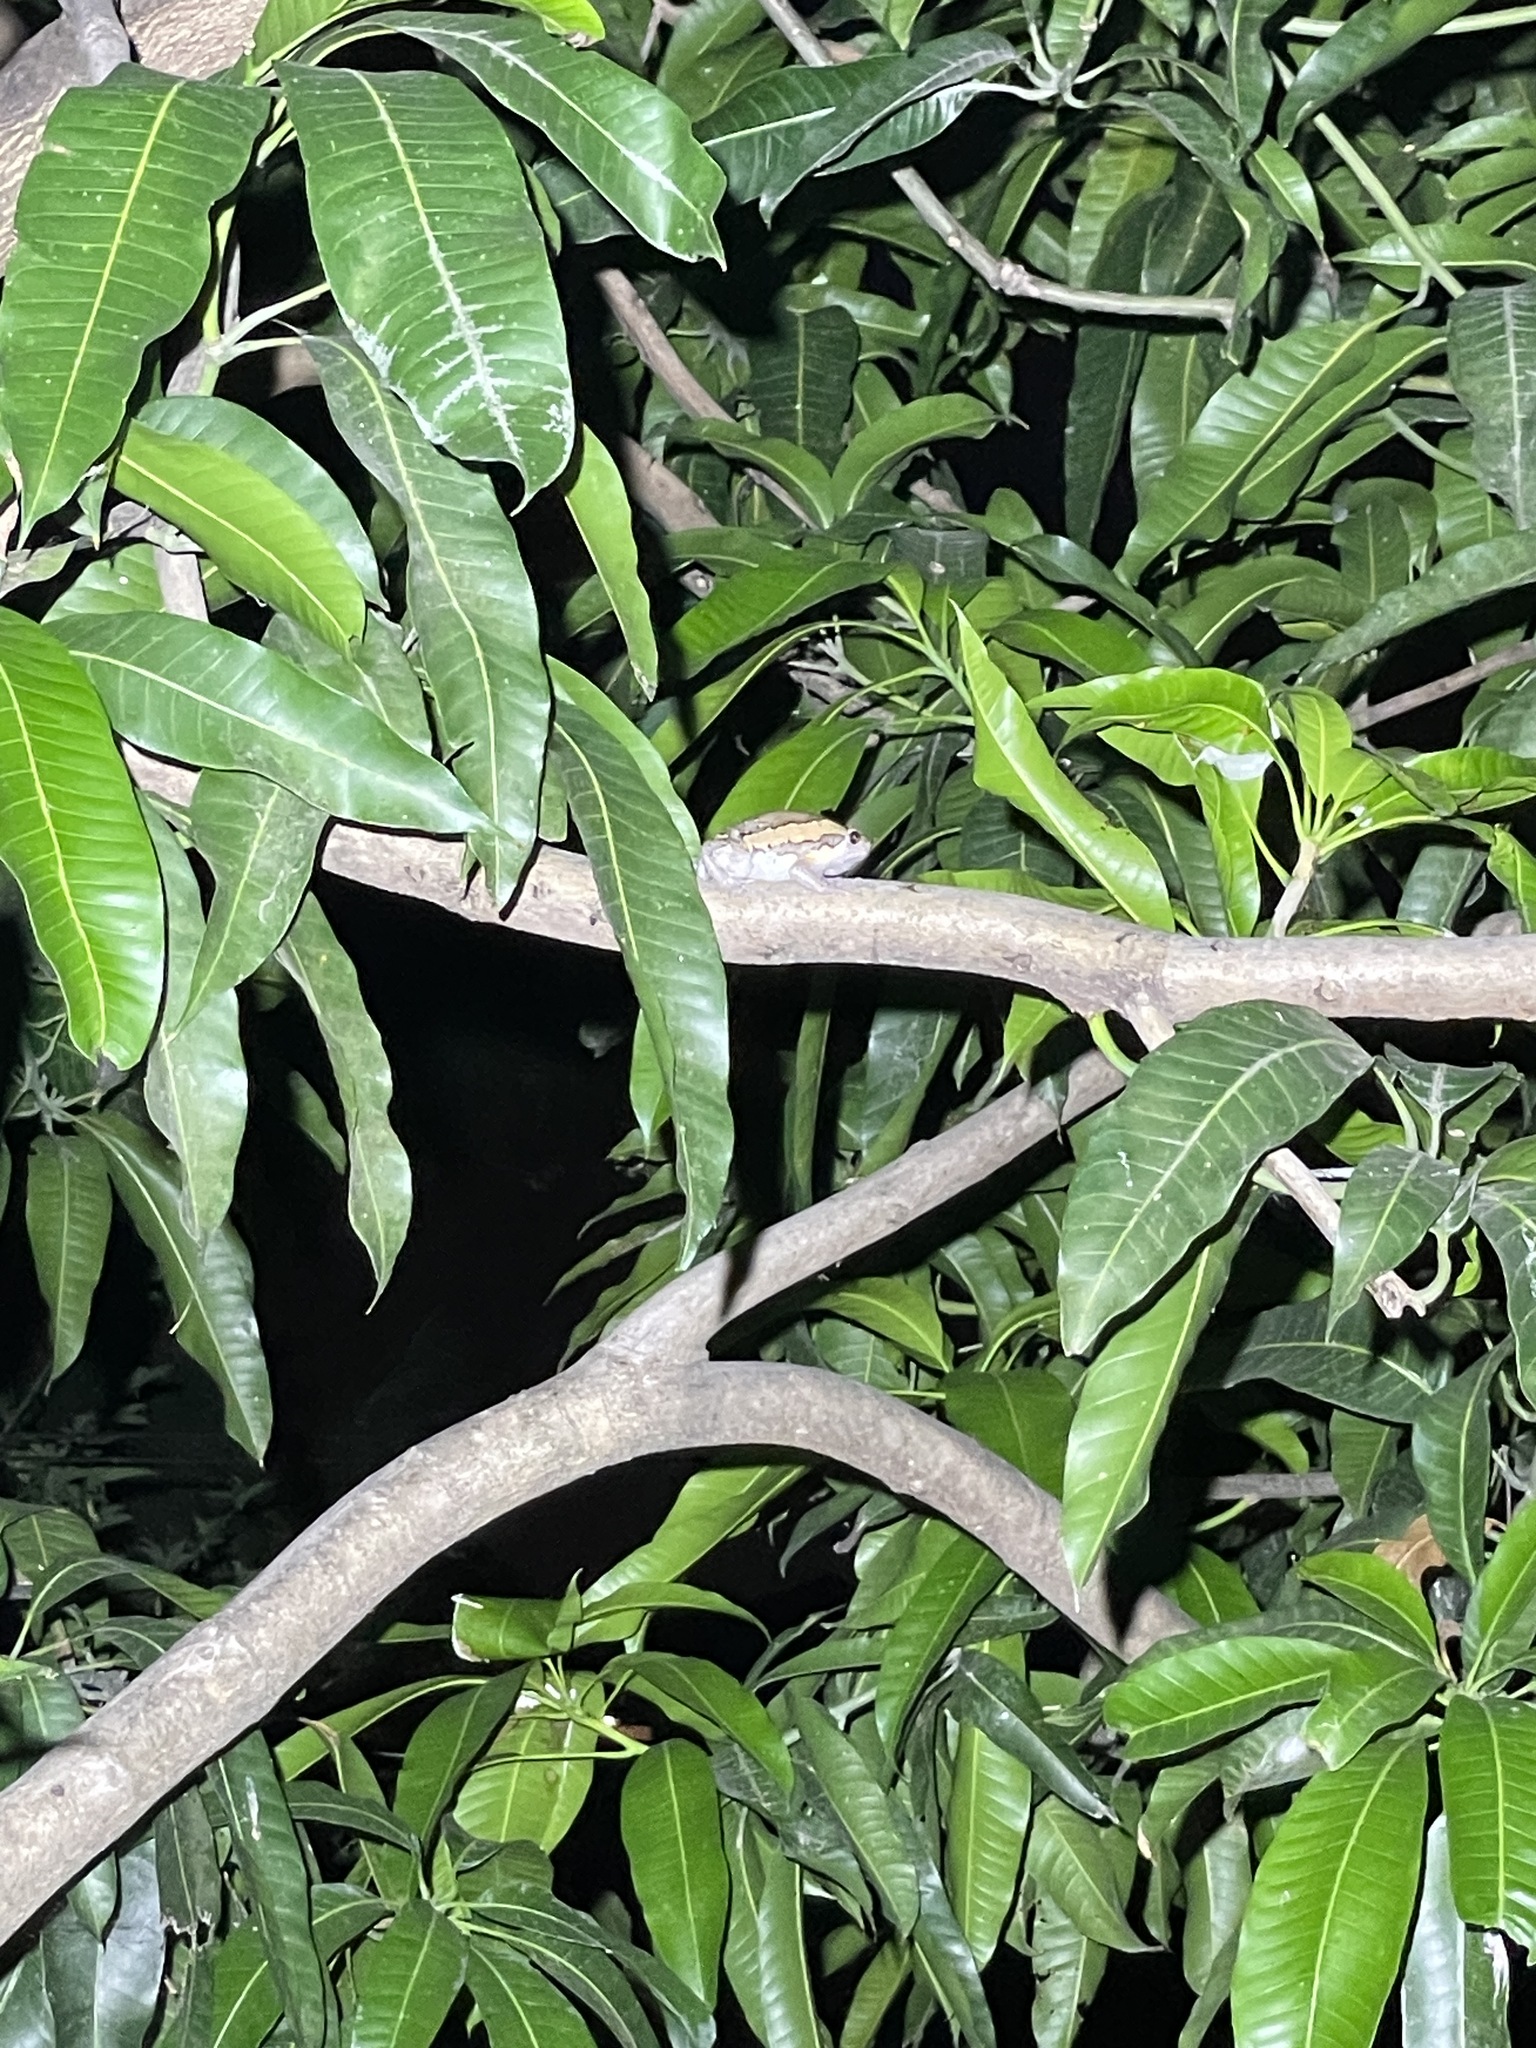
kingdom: Animalia
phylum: Chordata
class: Amphibia
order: Anura
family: Microhylidae
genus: Kaloula
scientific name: Kaloula pulchra
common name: Common,banded bullfrog
